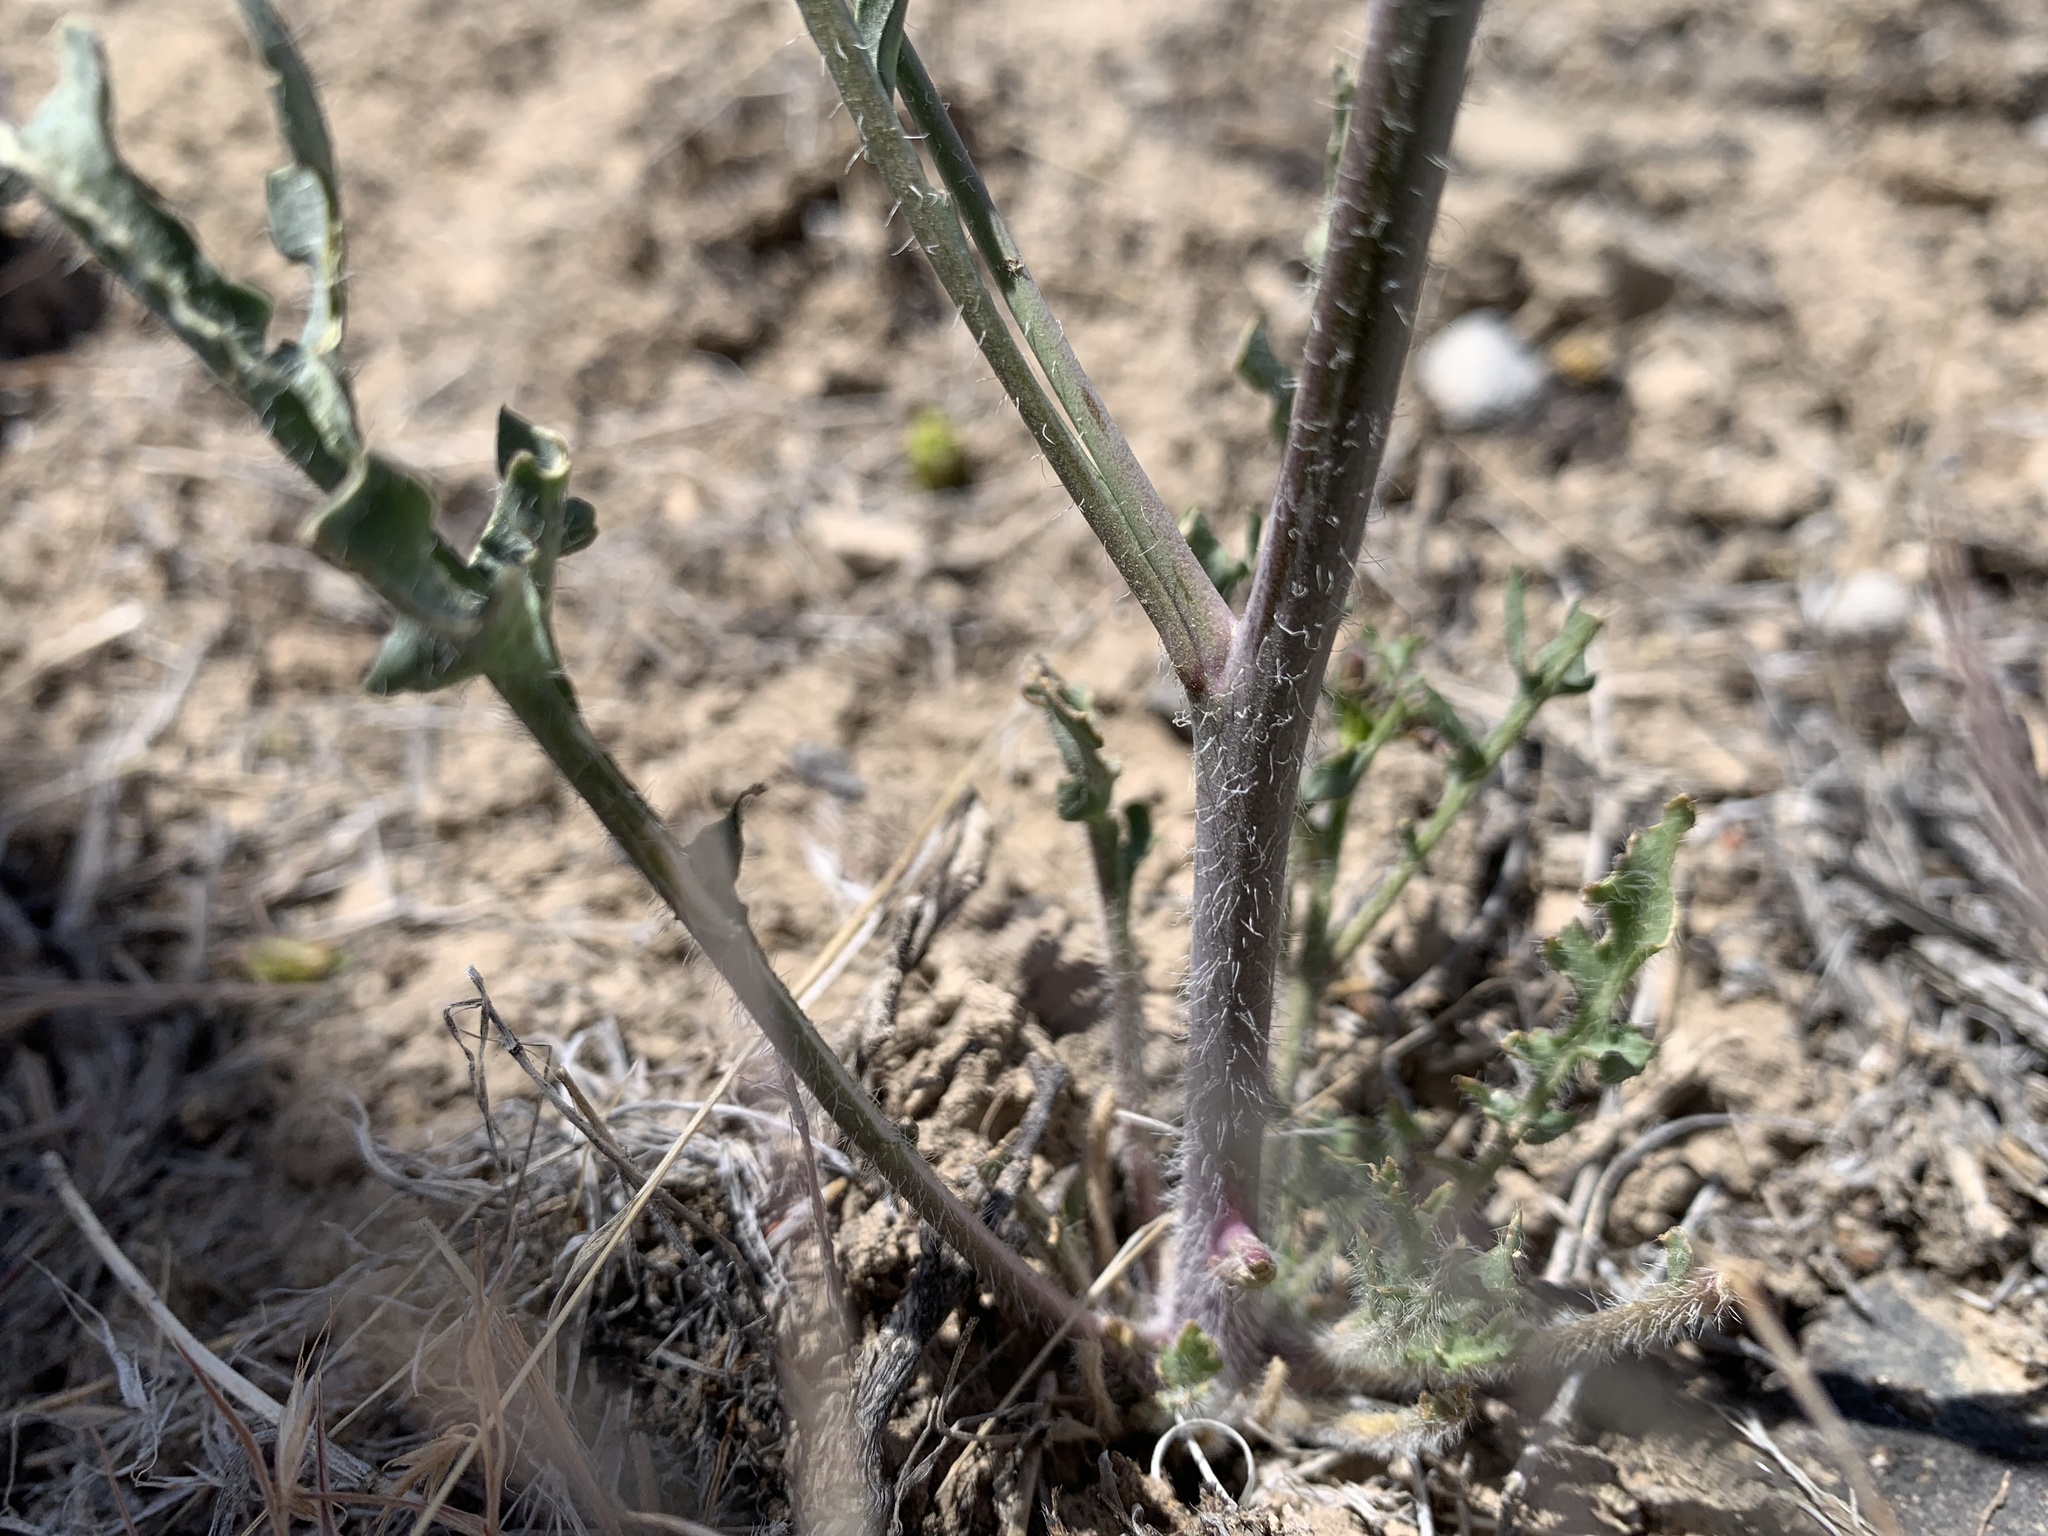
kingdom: Plantae
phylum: Tracheophyta
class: Magnoliopsida
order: Brassicales
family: Brassicaceae
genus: Streptanthus
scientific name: Streptanthus pilosus
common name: Chocolate drops
